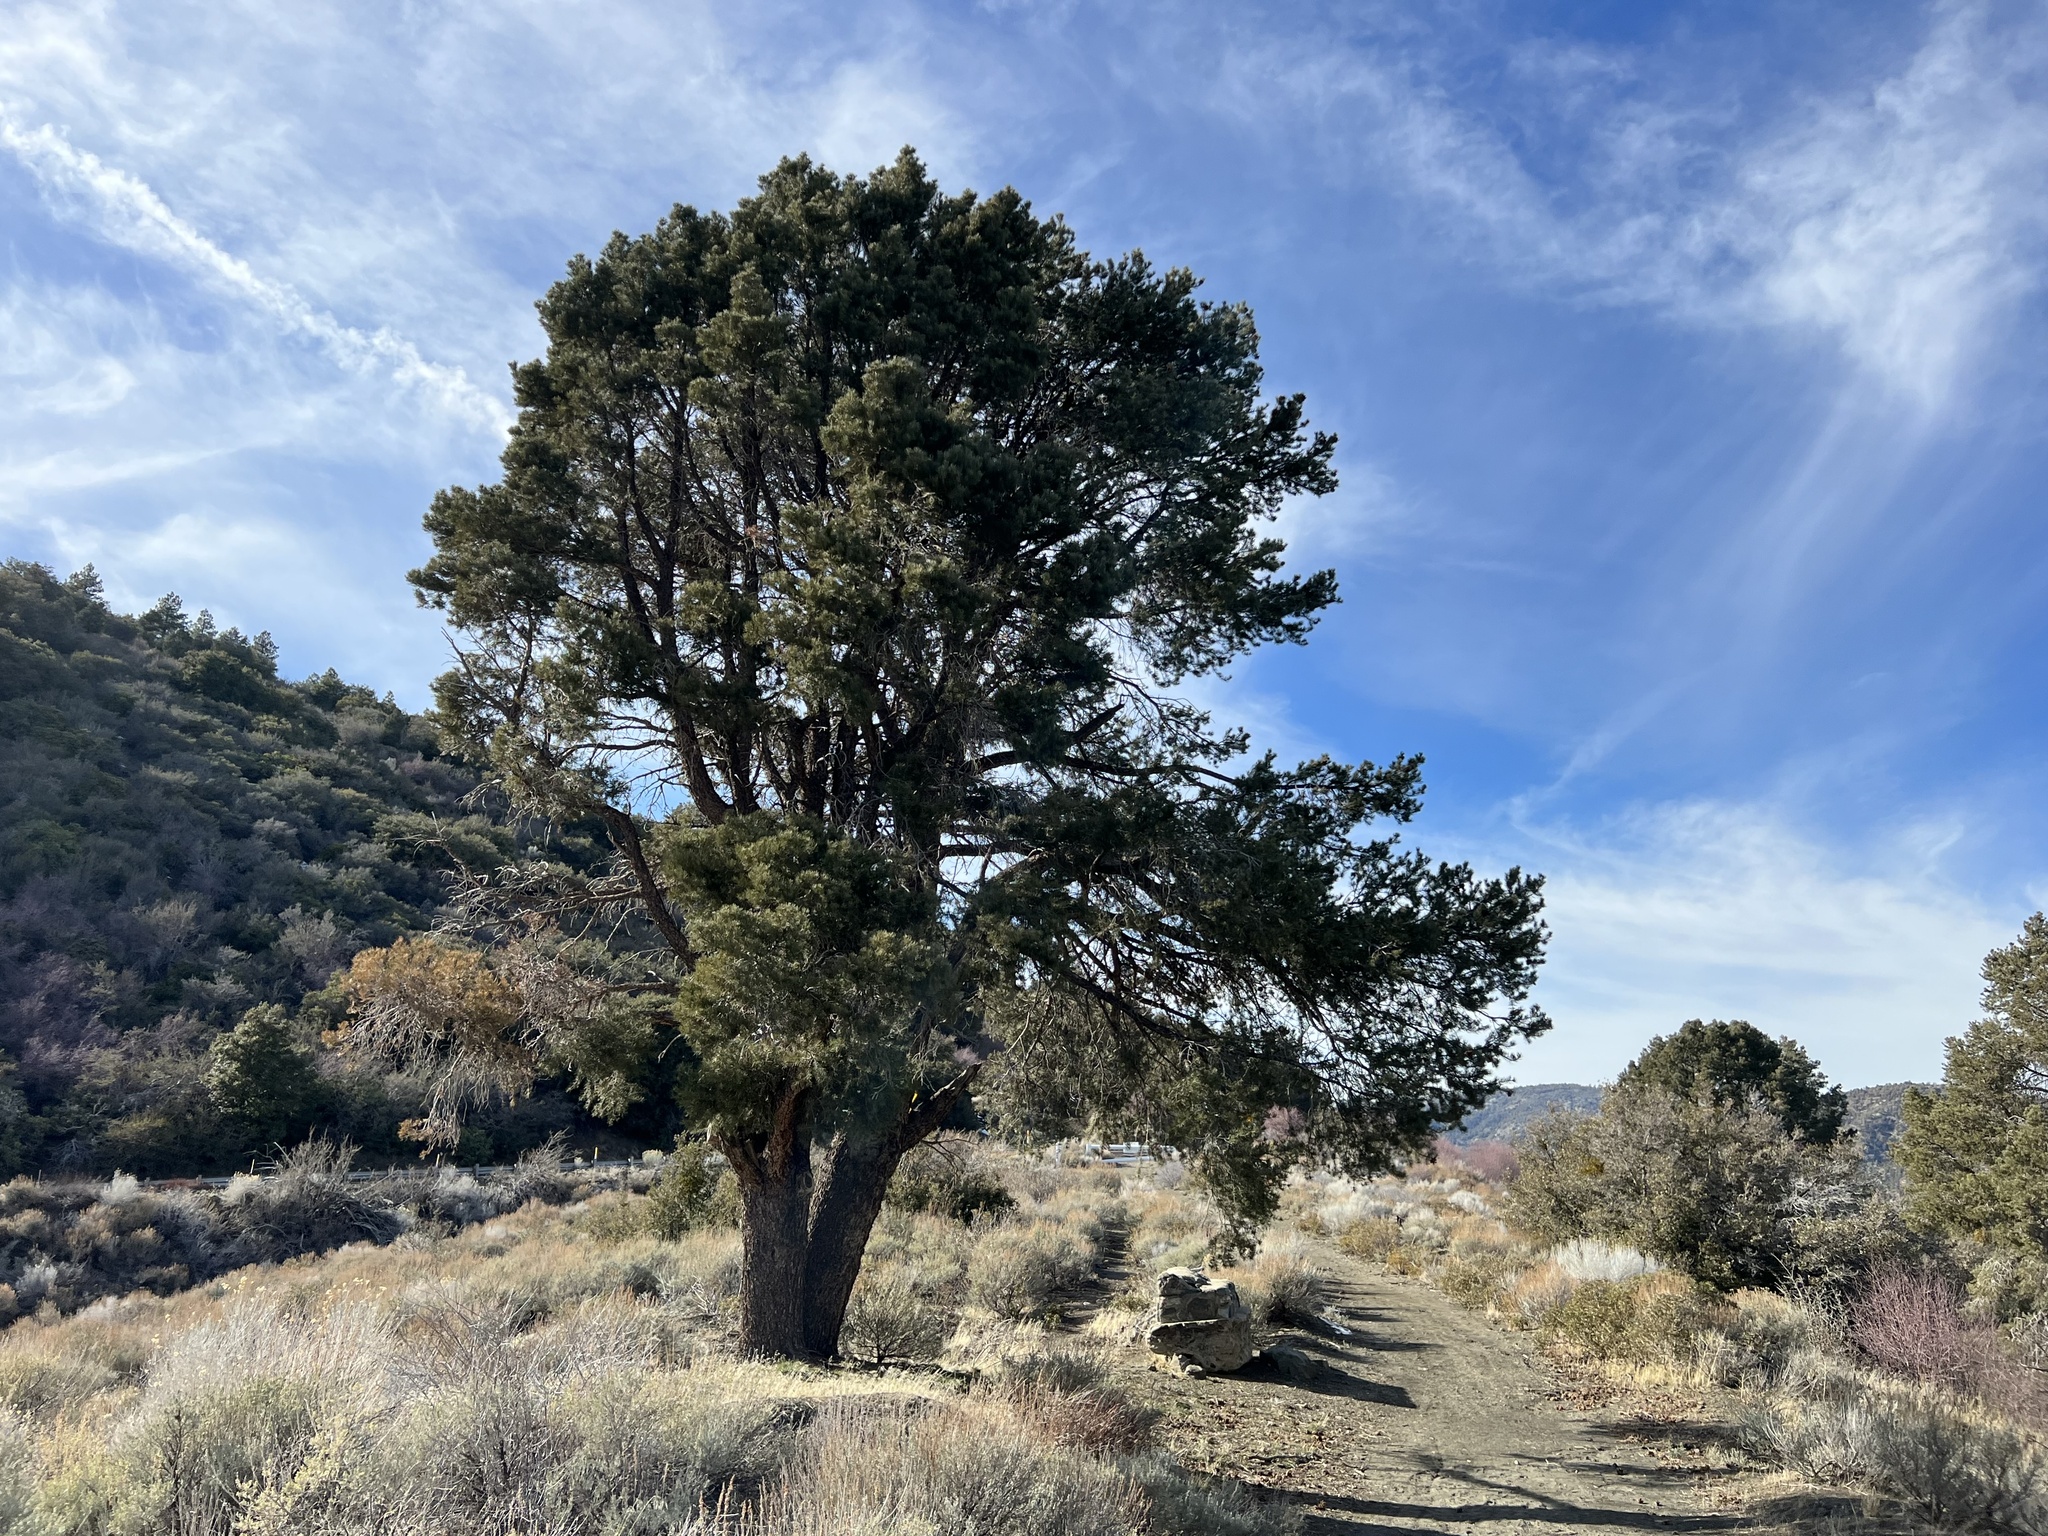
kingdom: Plantae
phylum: Tracheophyta
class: Pinopsida
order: Pinales
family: Pinaceae
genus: Pinus
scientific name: Pinus monophylla
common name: One-leaved nut pine
